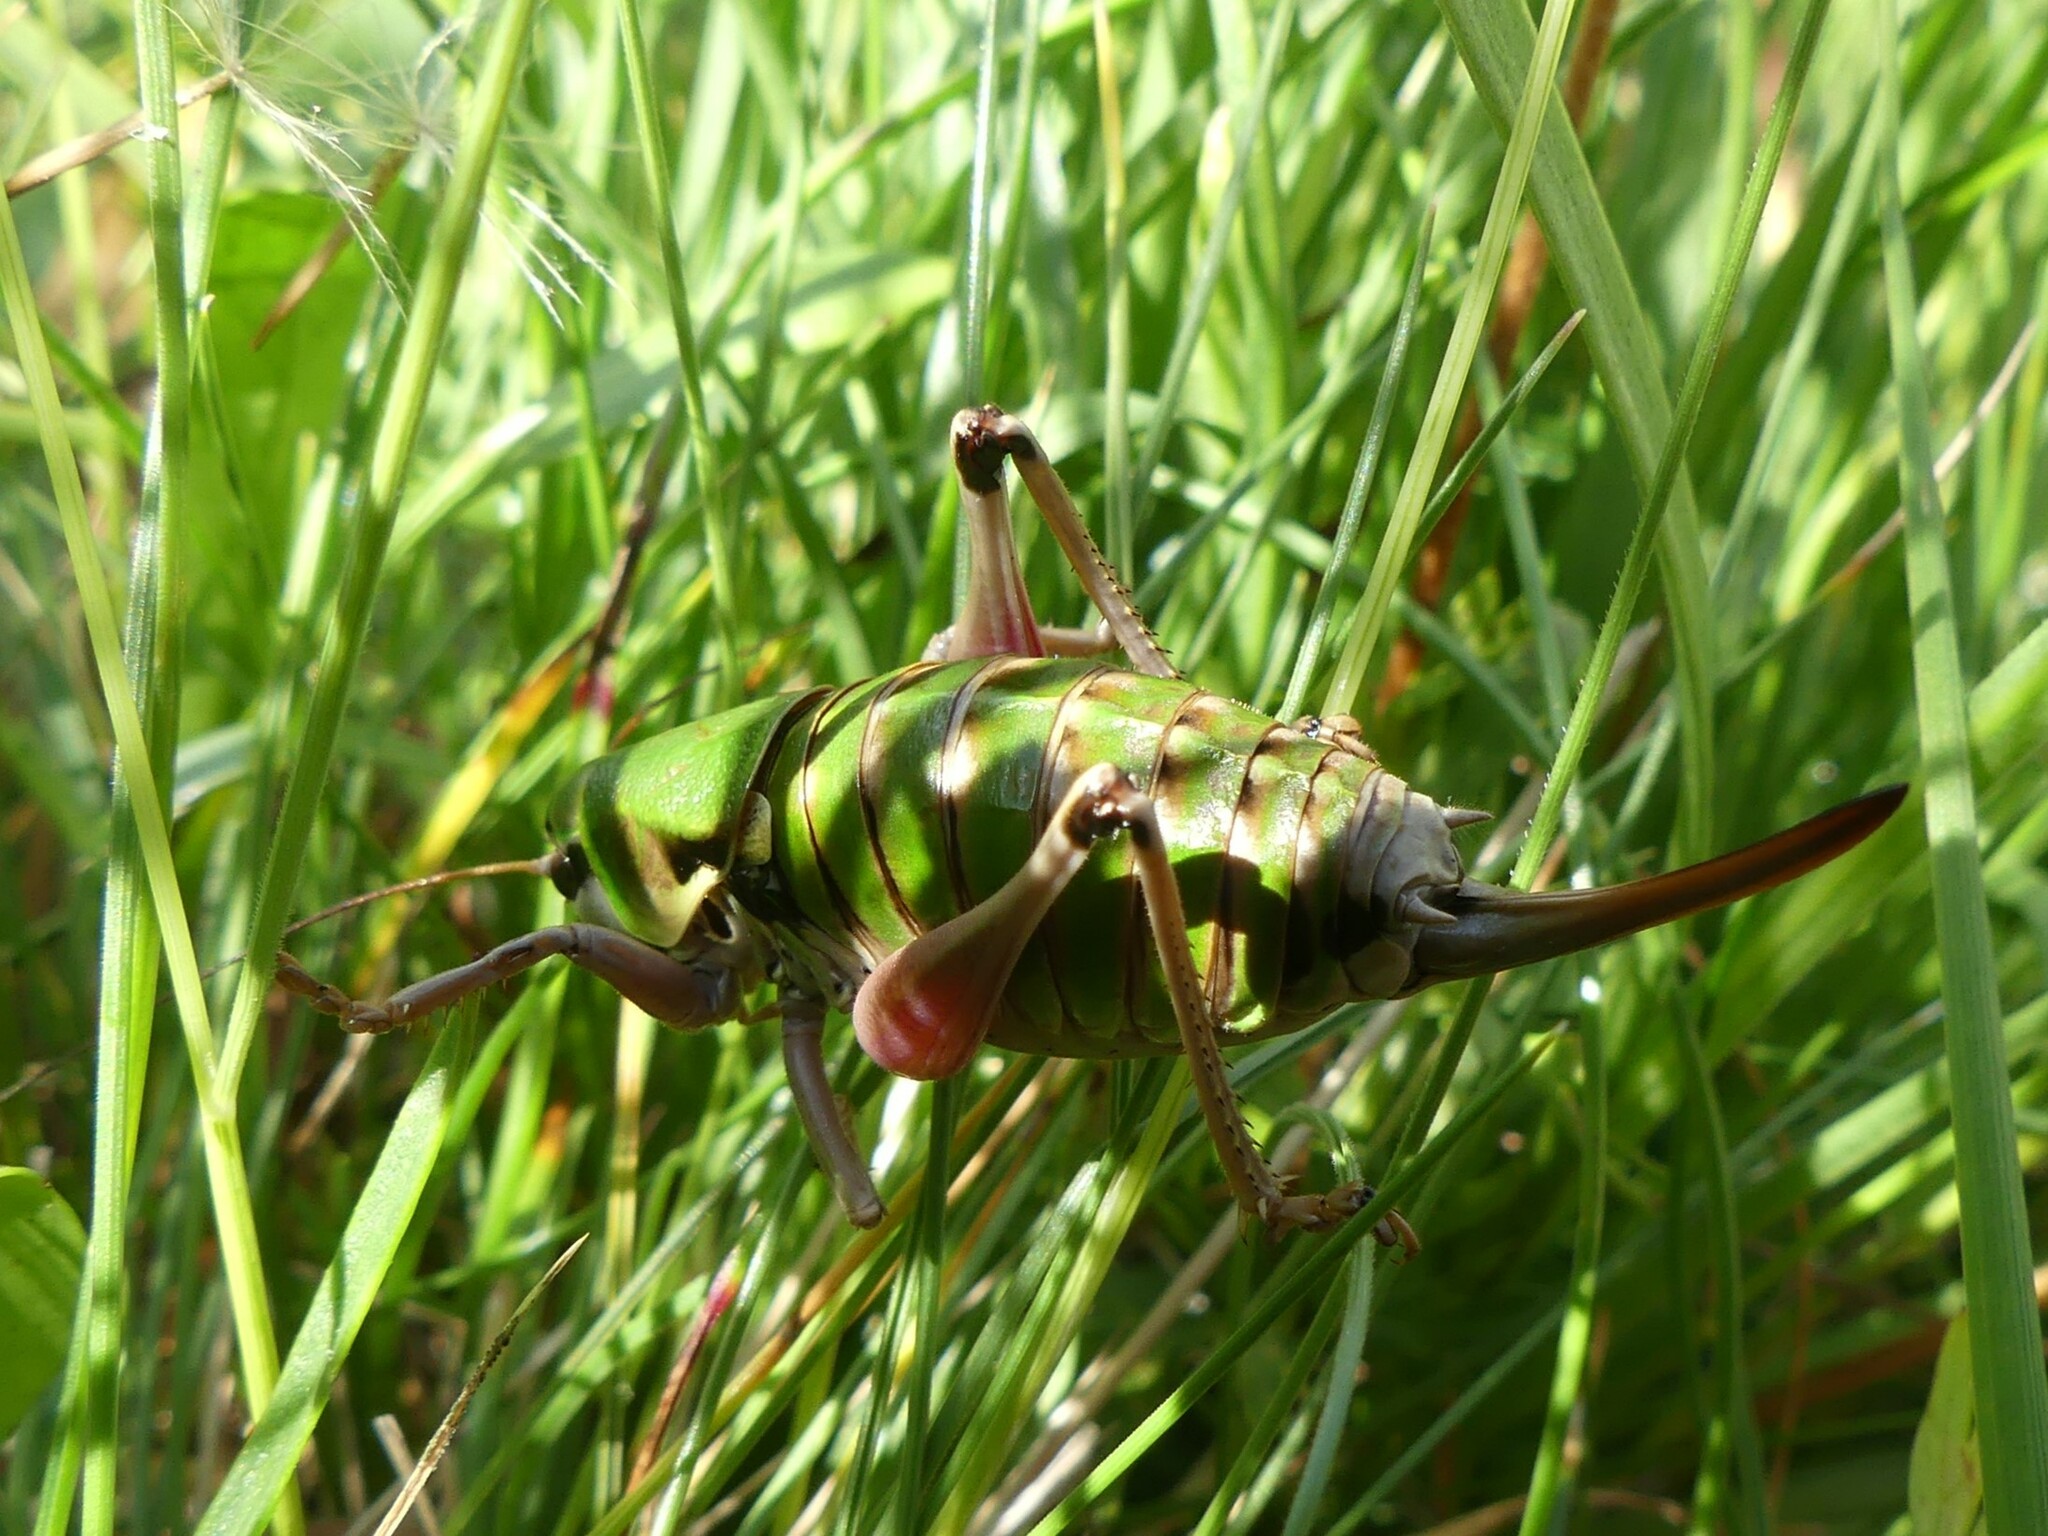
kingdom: Animalia
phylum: Arthropoda
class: Insecta
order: Orthoptera
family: Tettigoniidae
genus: Anonconotus
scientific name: Anonconotus alpinus
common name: Small alpine bush-cricket
